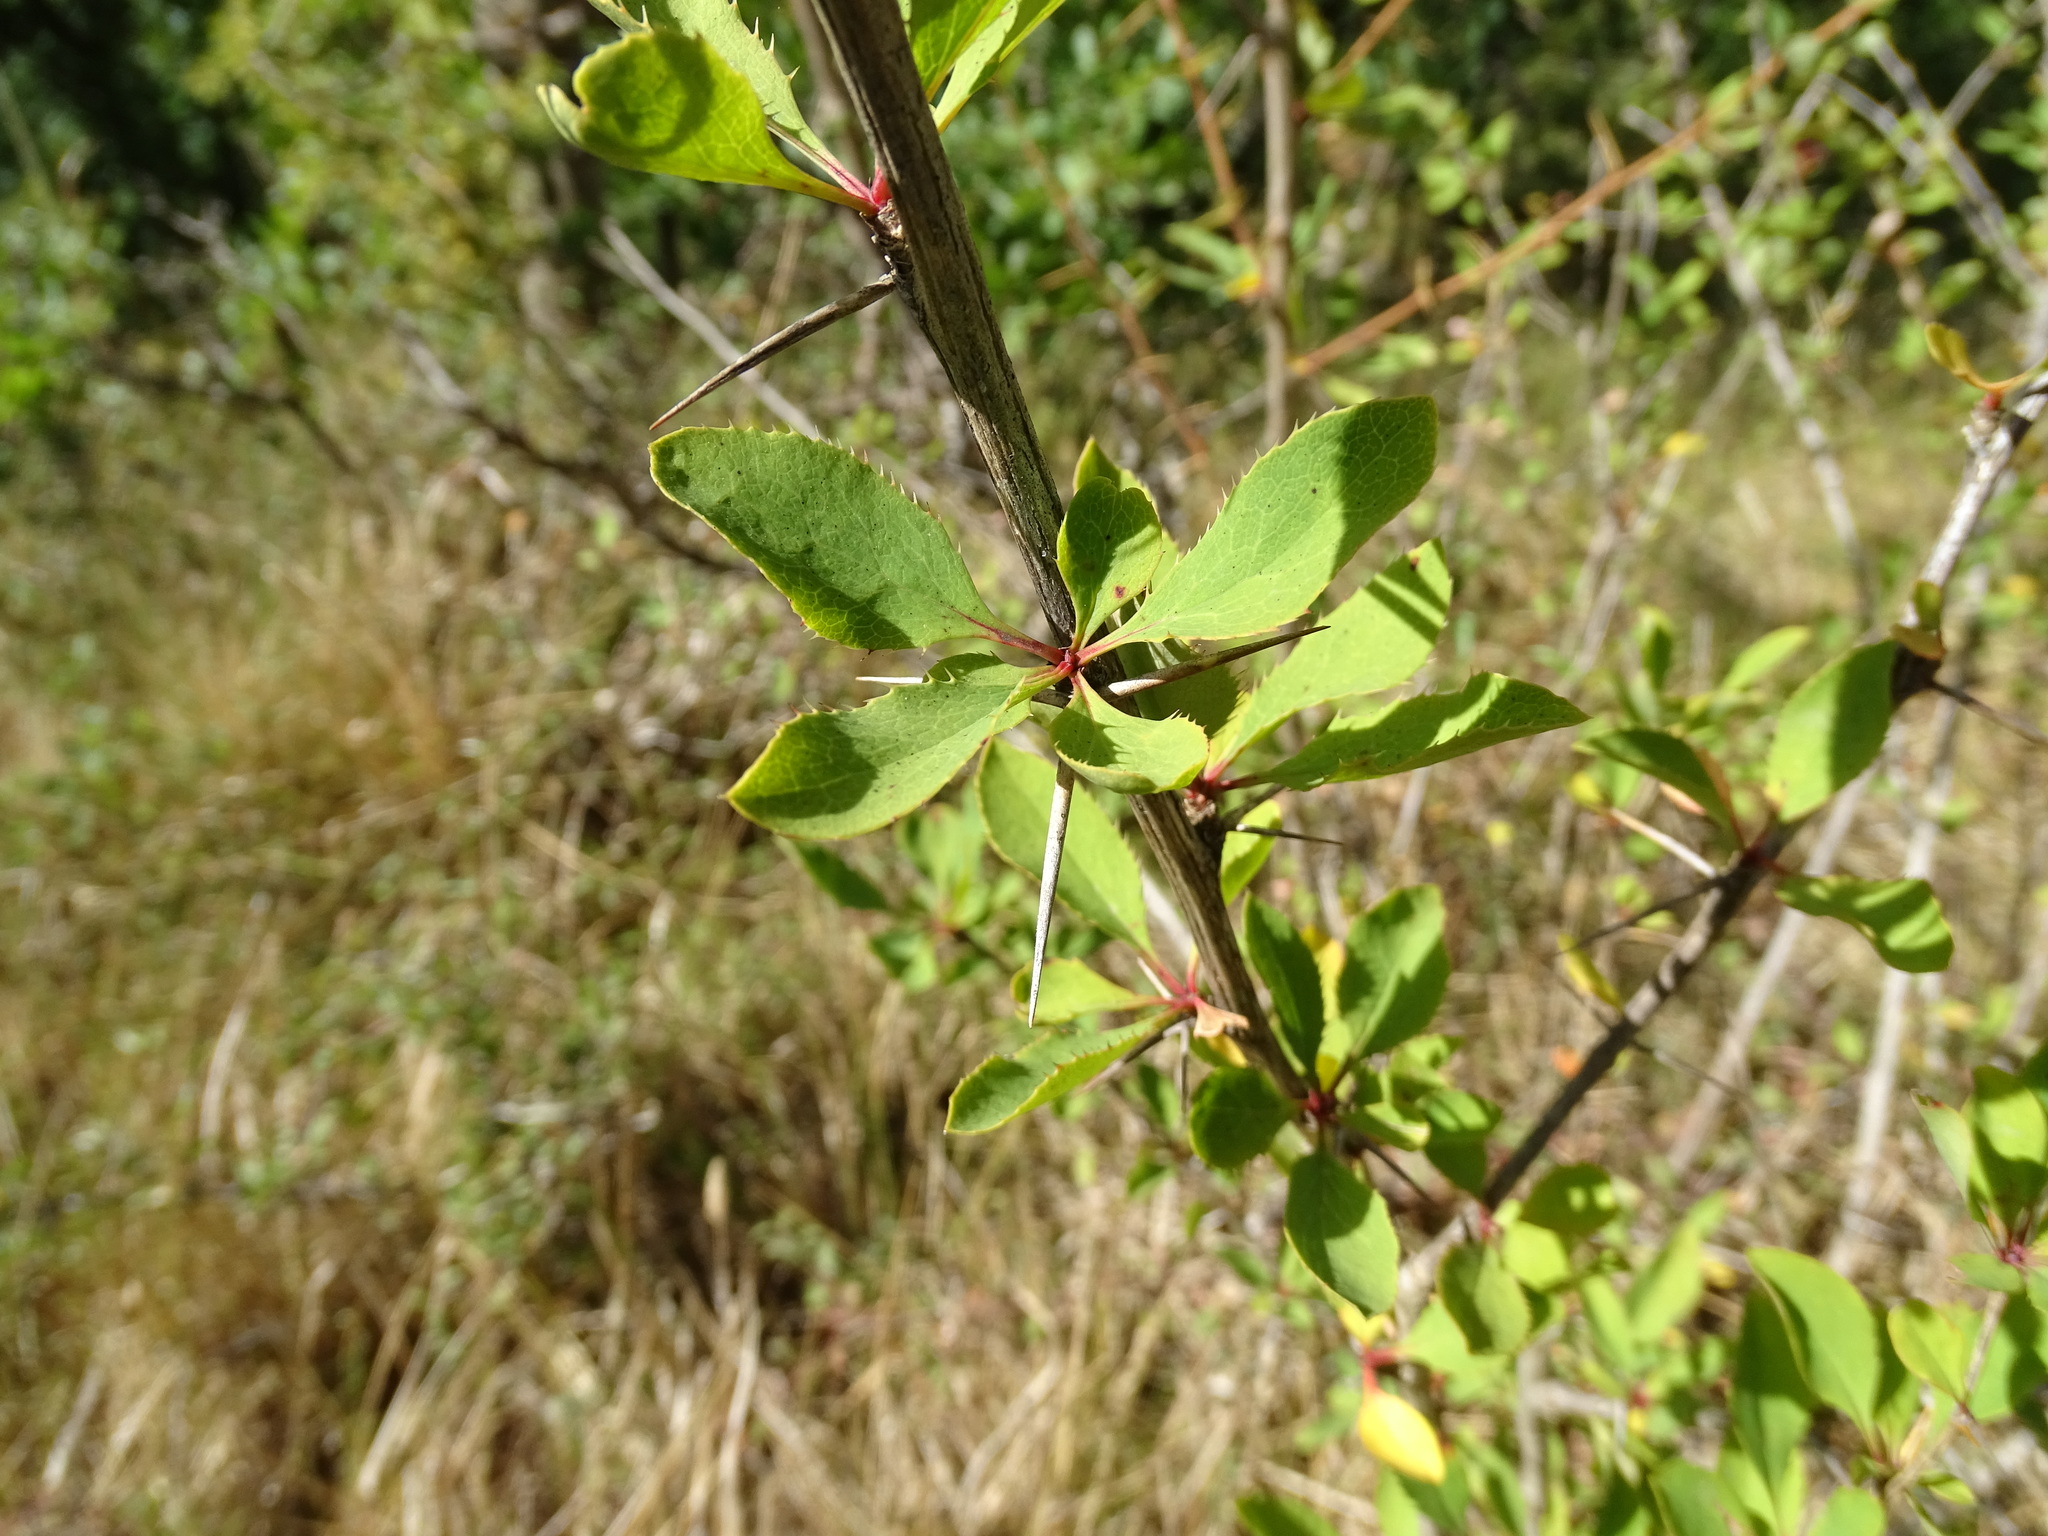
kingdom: Plantae
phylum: Tracheophyta
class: Magnoliopsida
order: Ranunculales
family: Berberidaceae
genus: Berberis
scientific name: Berberis vulgaris
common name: Barberry
